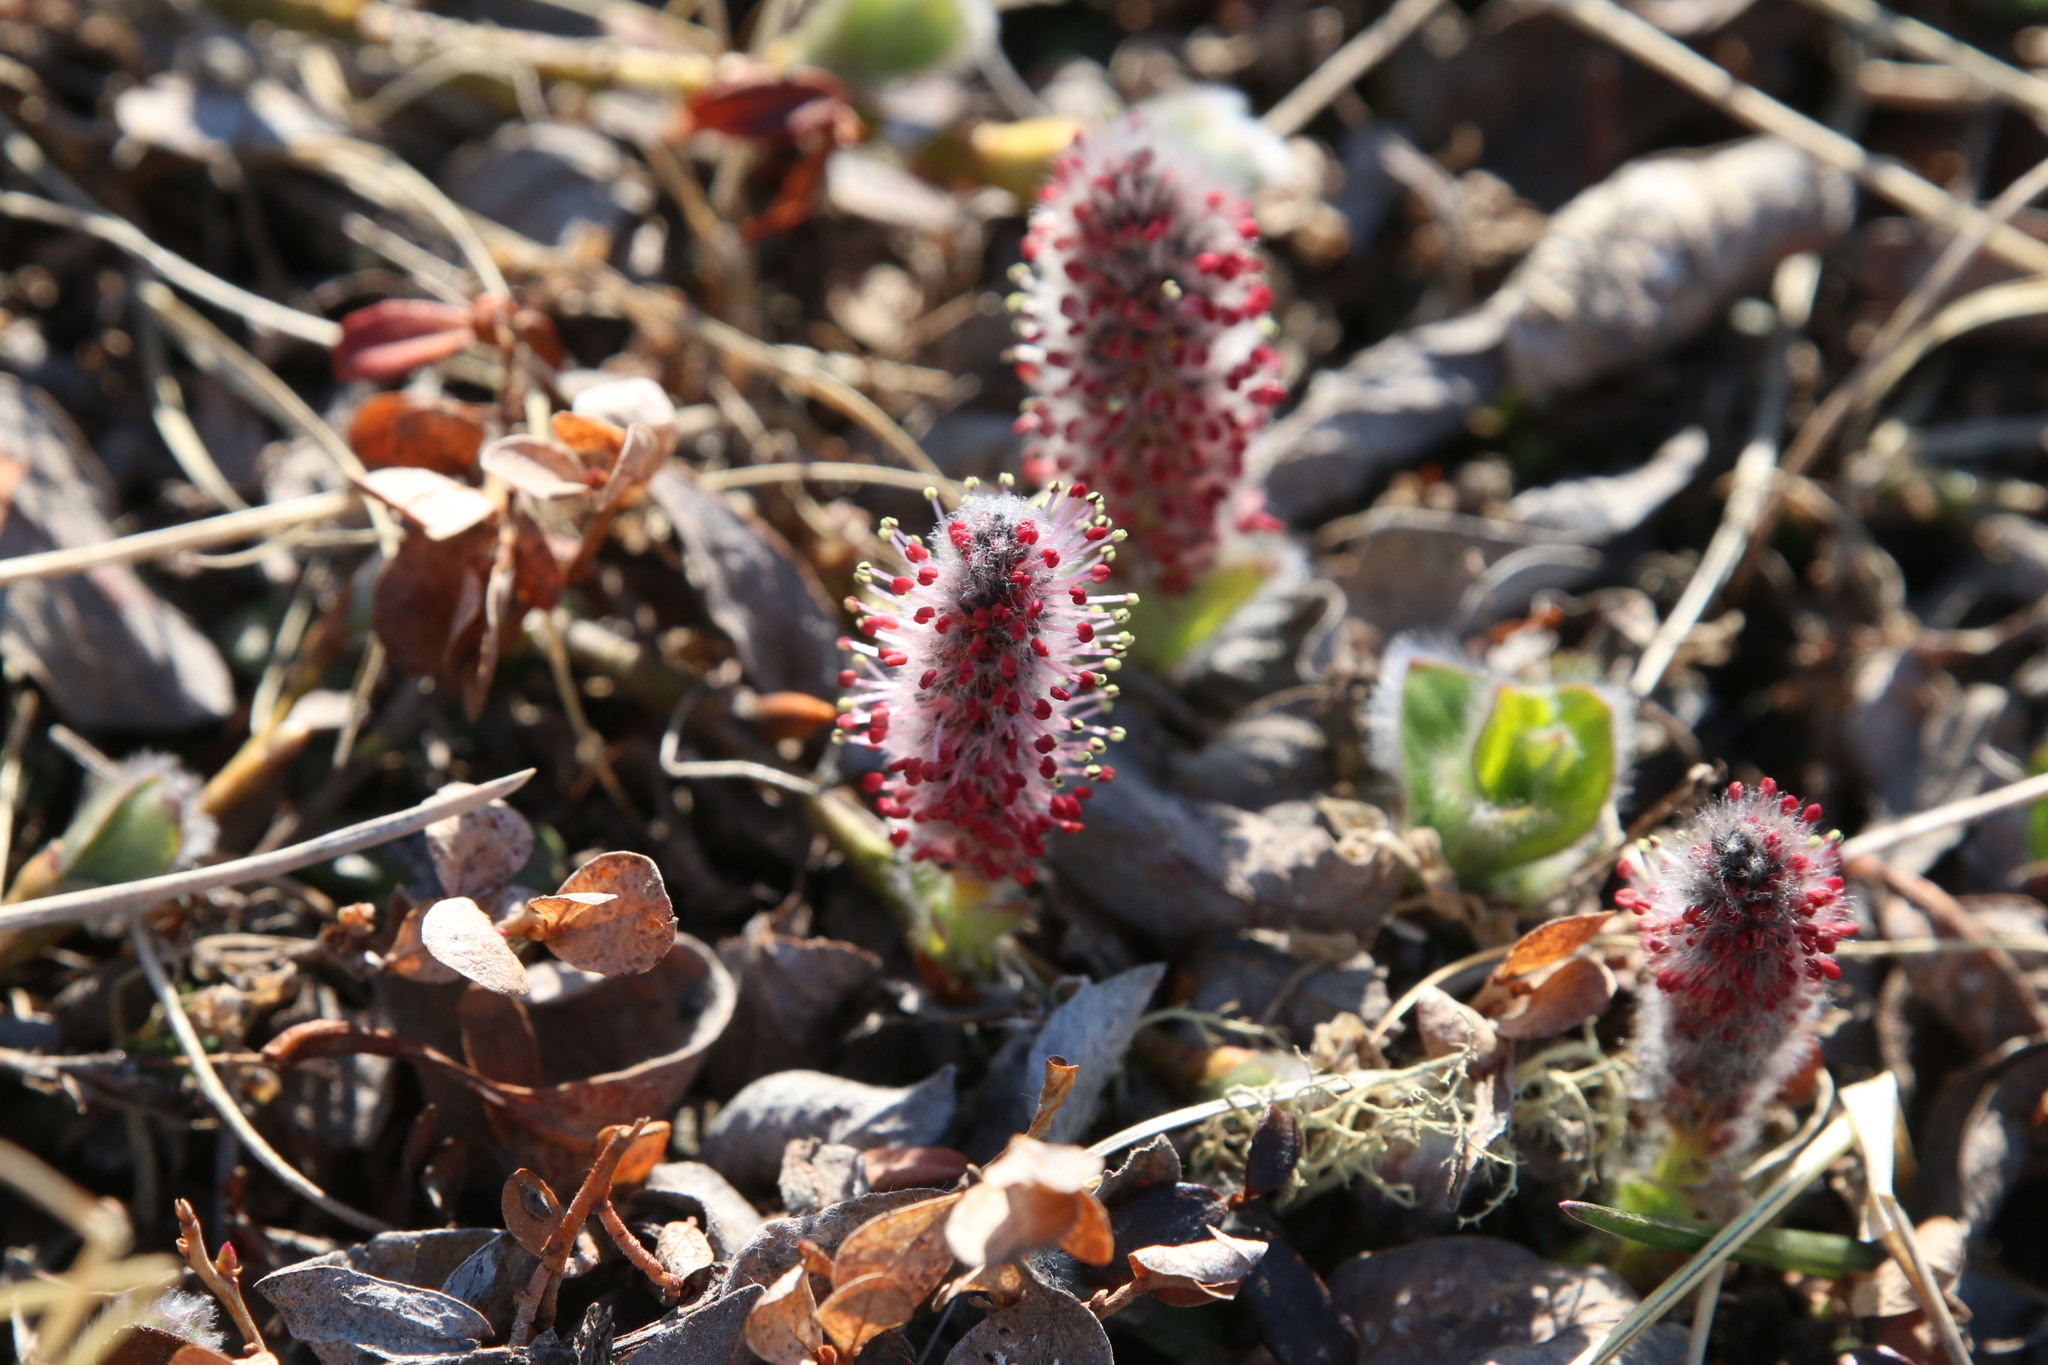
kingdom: Plantae
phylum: Tracheophyta
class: Magnoliopsida
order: Malpighiales
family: Salicaceae
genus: Salix
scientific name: Salix arctica
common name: Arctic willow
